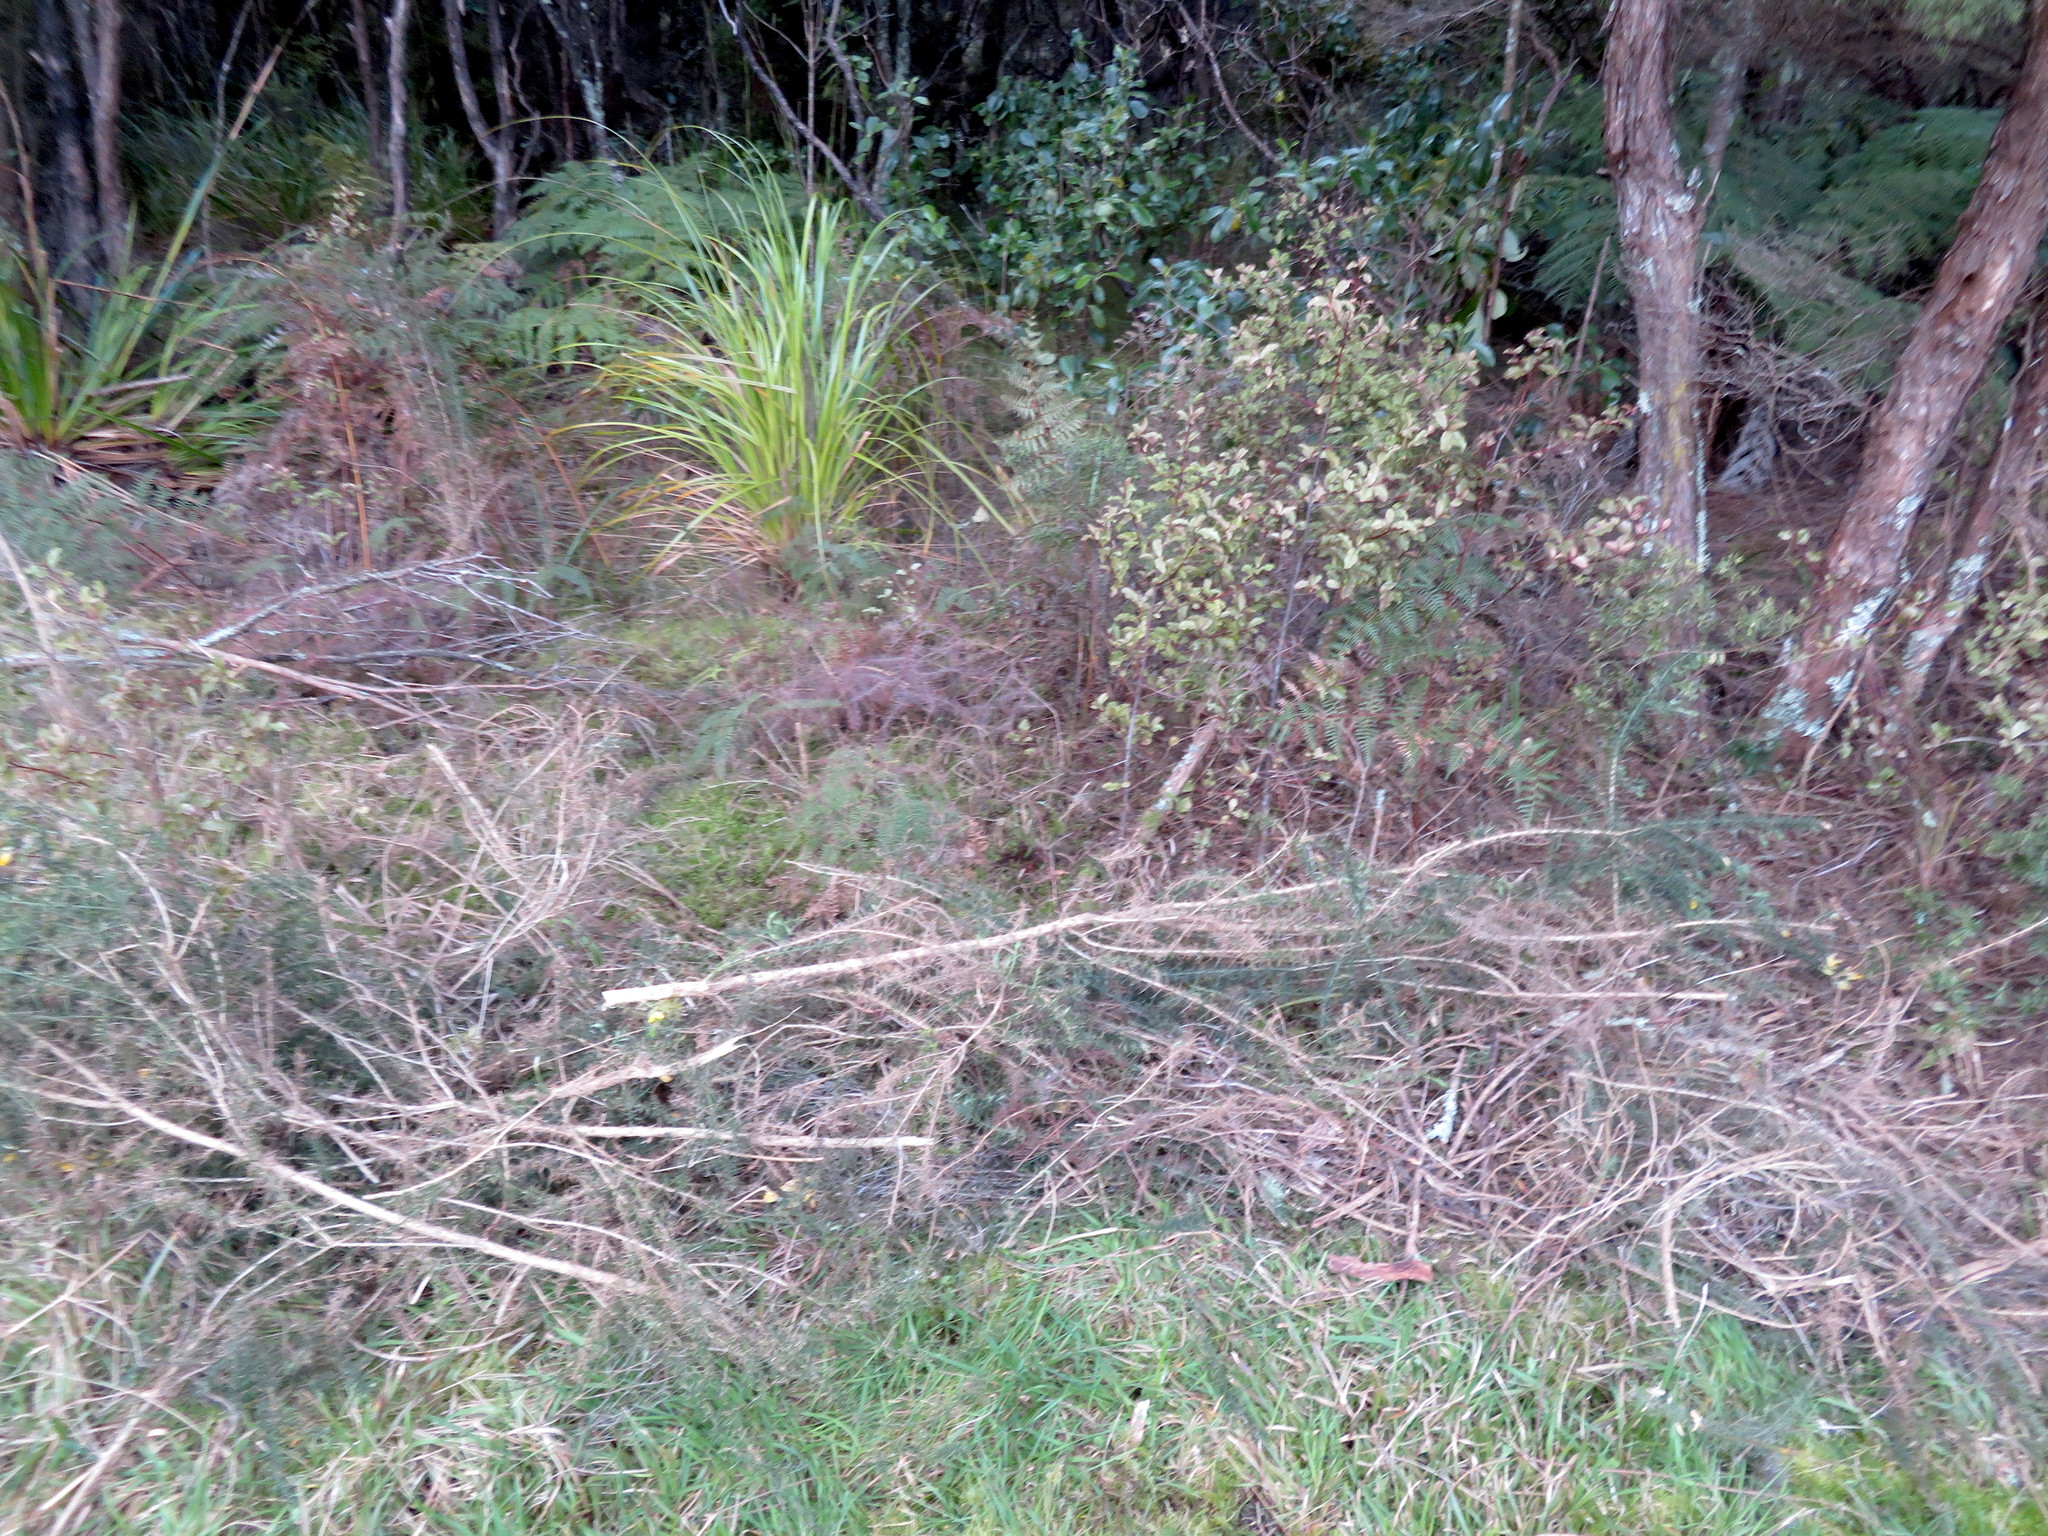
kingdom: Plantae
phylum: Tracheophyta
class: Magnoliopsida
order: Fabales
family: Fabaceae
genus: Ulex
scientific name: Ulex europaeus
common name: Common gorse
